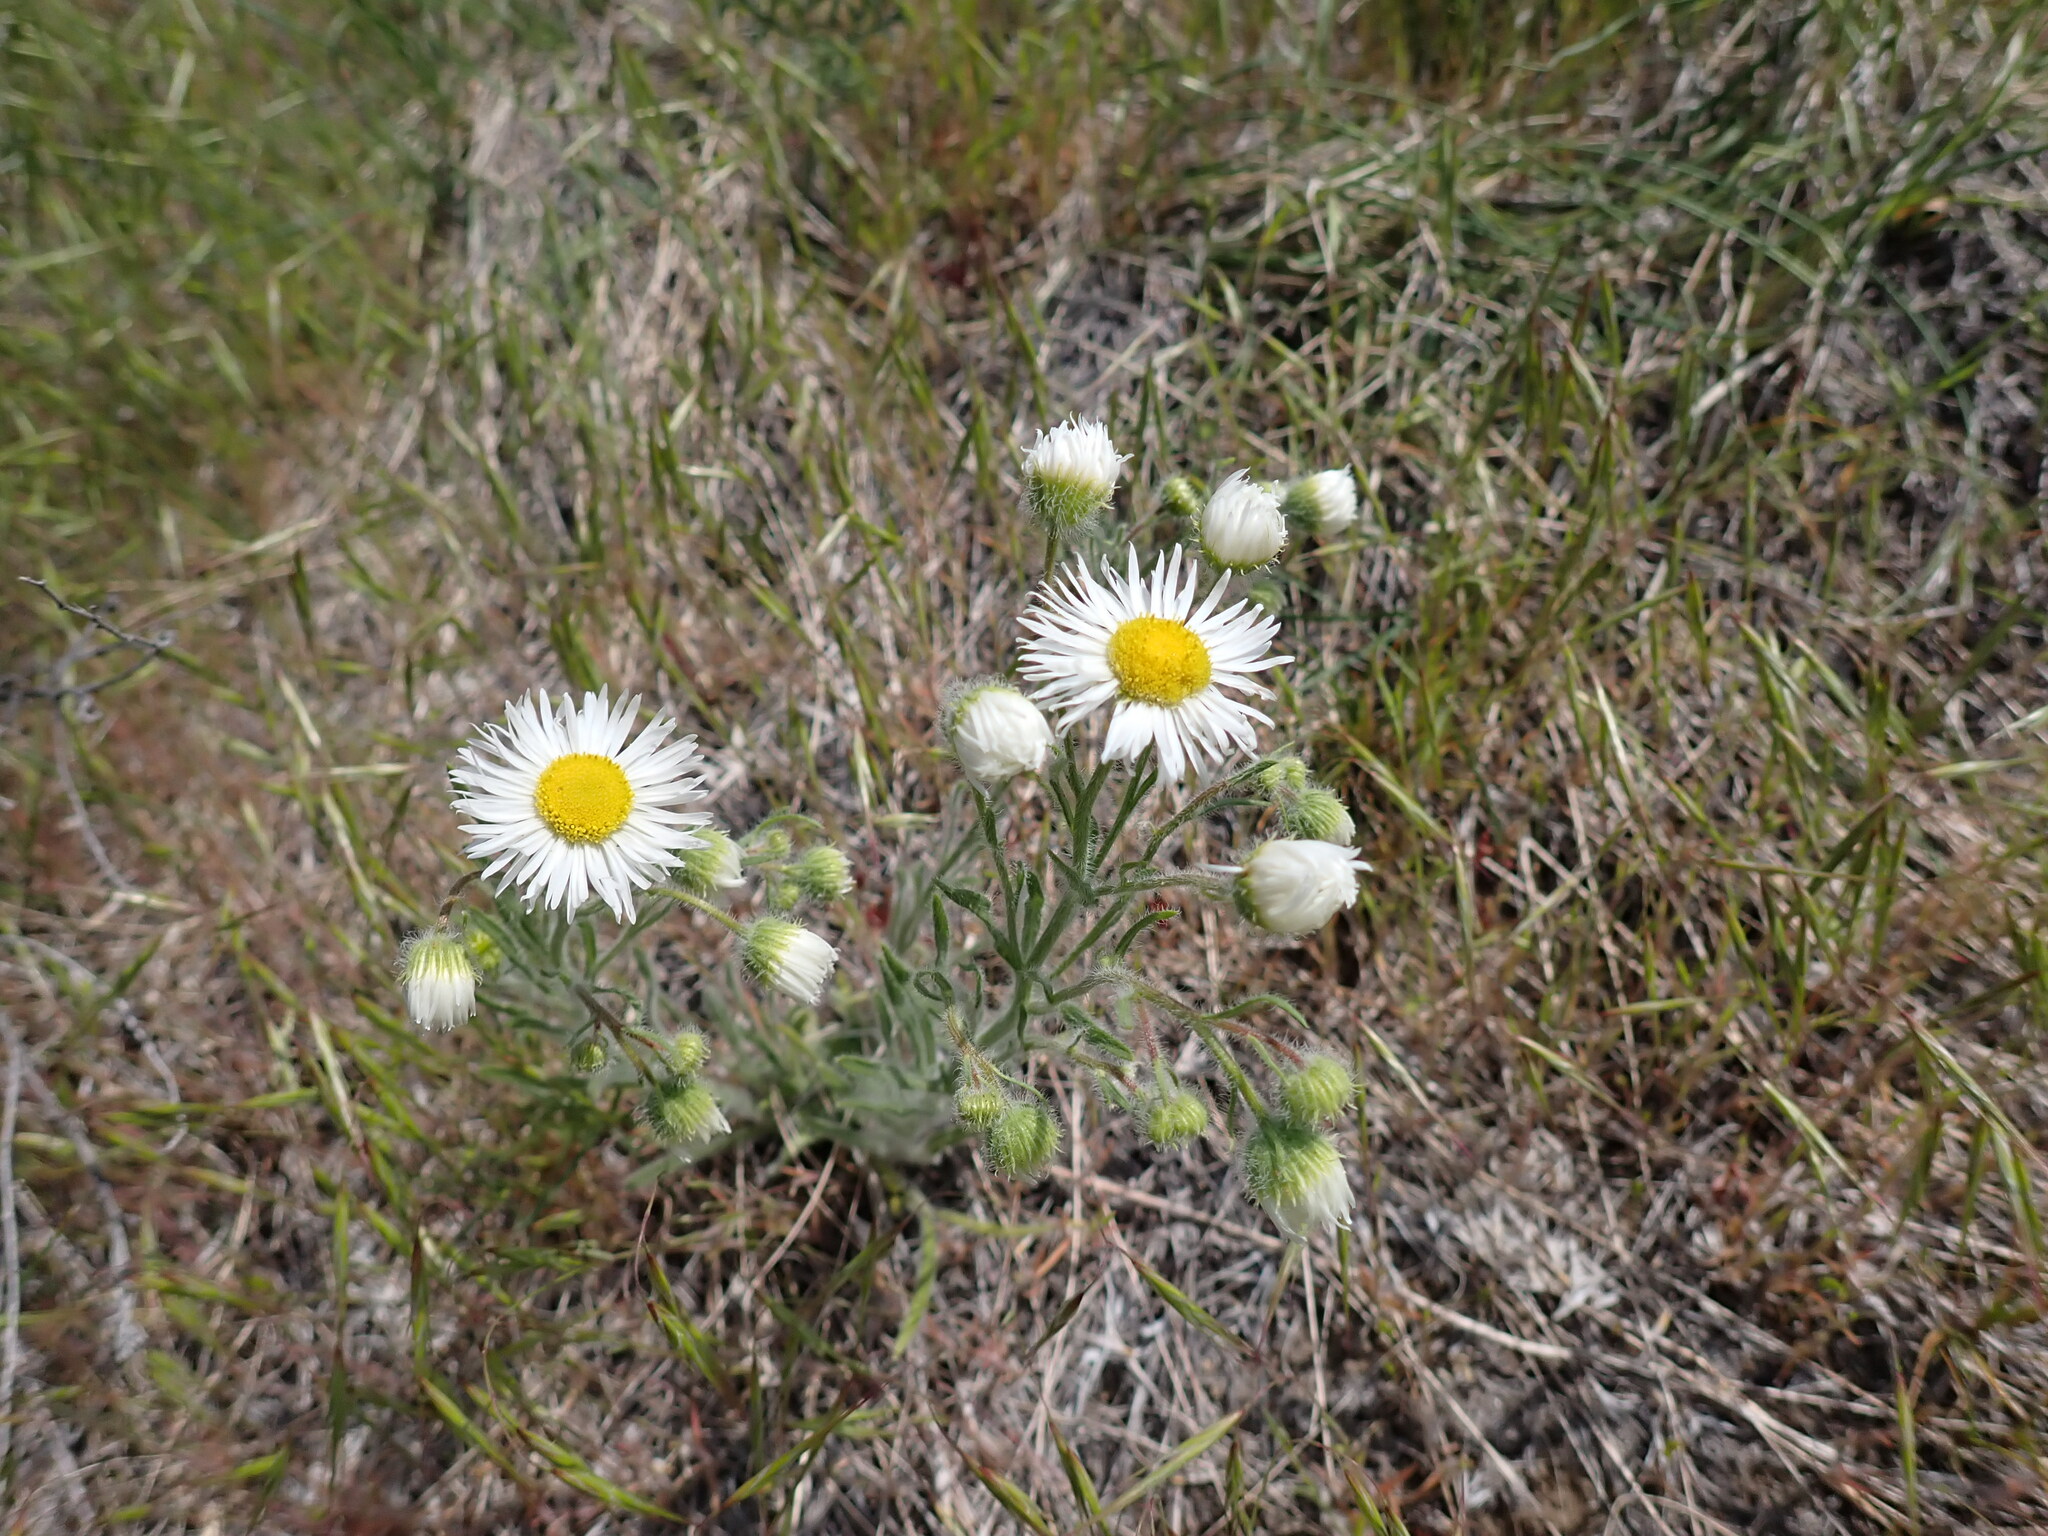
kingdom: Plantae
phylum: Tracheophyta
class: Magnoliopsida
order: Asterales
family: Asteraceae
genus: Erigeron
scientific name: Erigeron pumilus
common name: Shaggy fleabane
